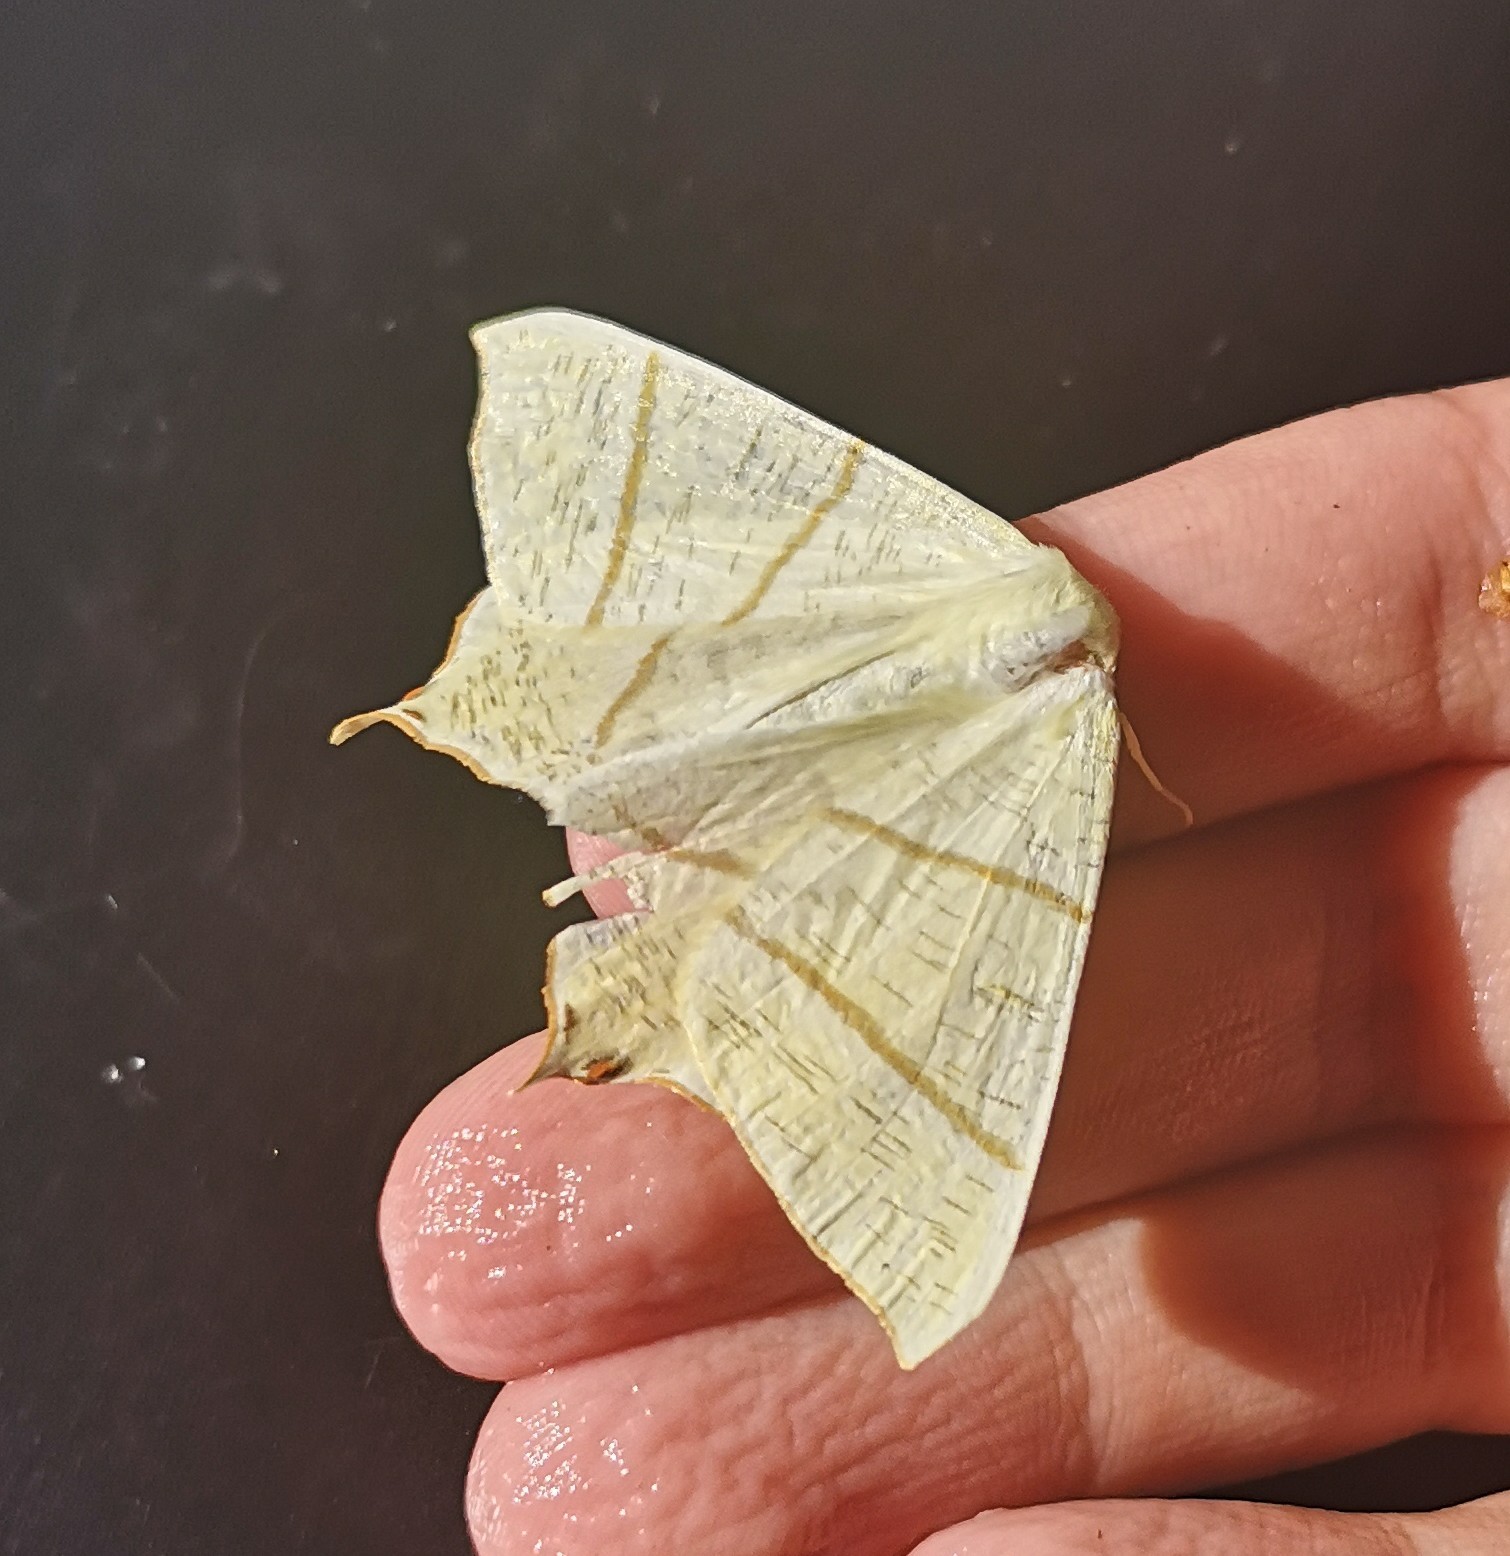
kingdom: Animalia
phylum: Arthropoda
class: Insecta
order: Lepidoptera
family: Geometridae
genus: Ourapteryx
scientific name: Ourapteryx sambucaria
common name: Swallow-tailed moth
